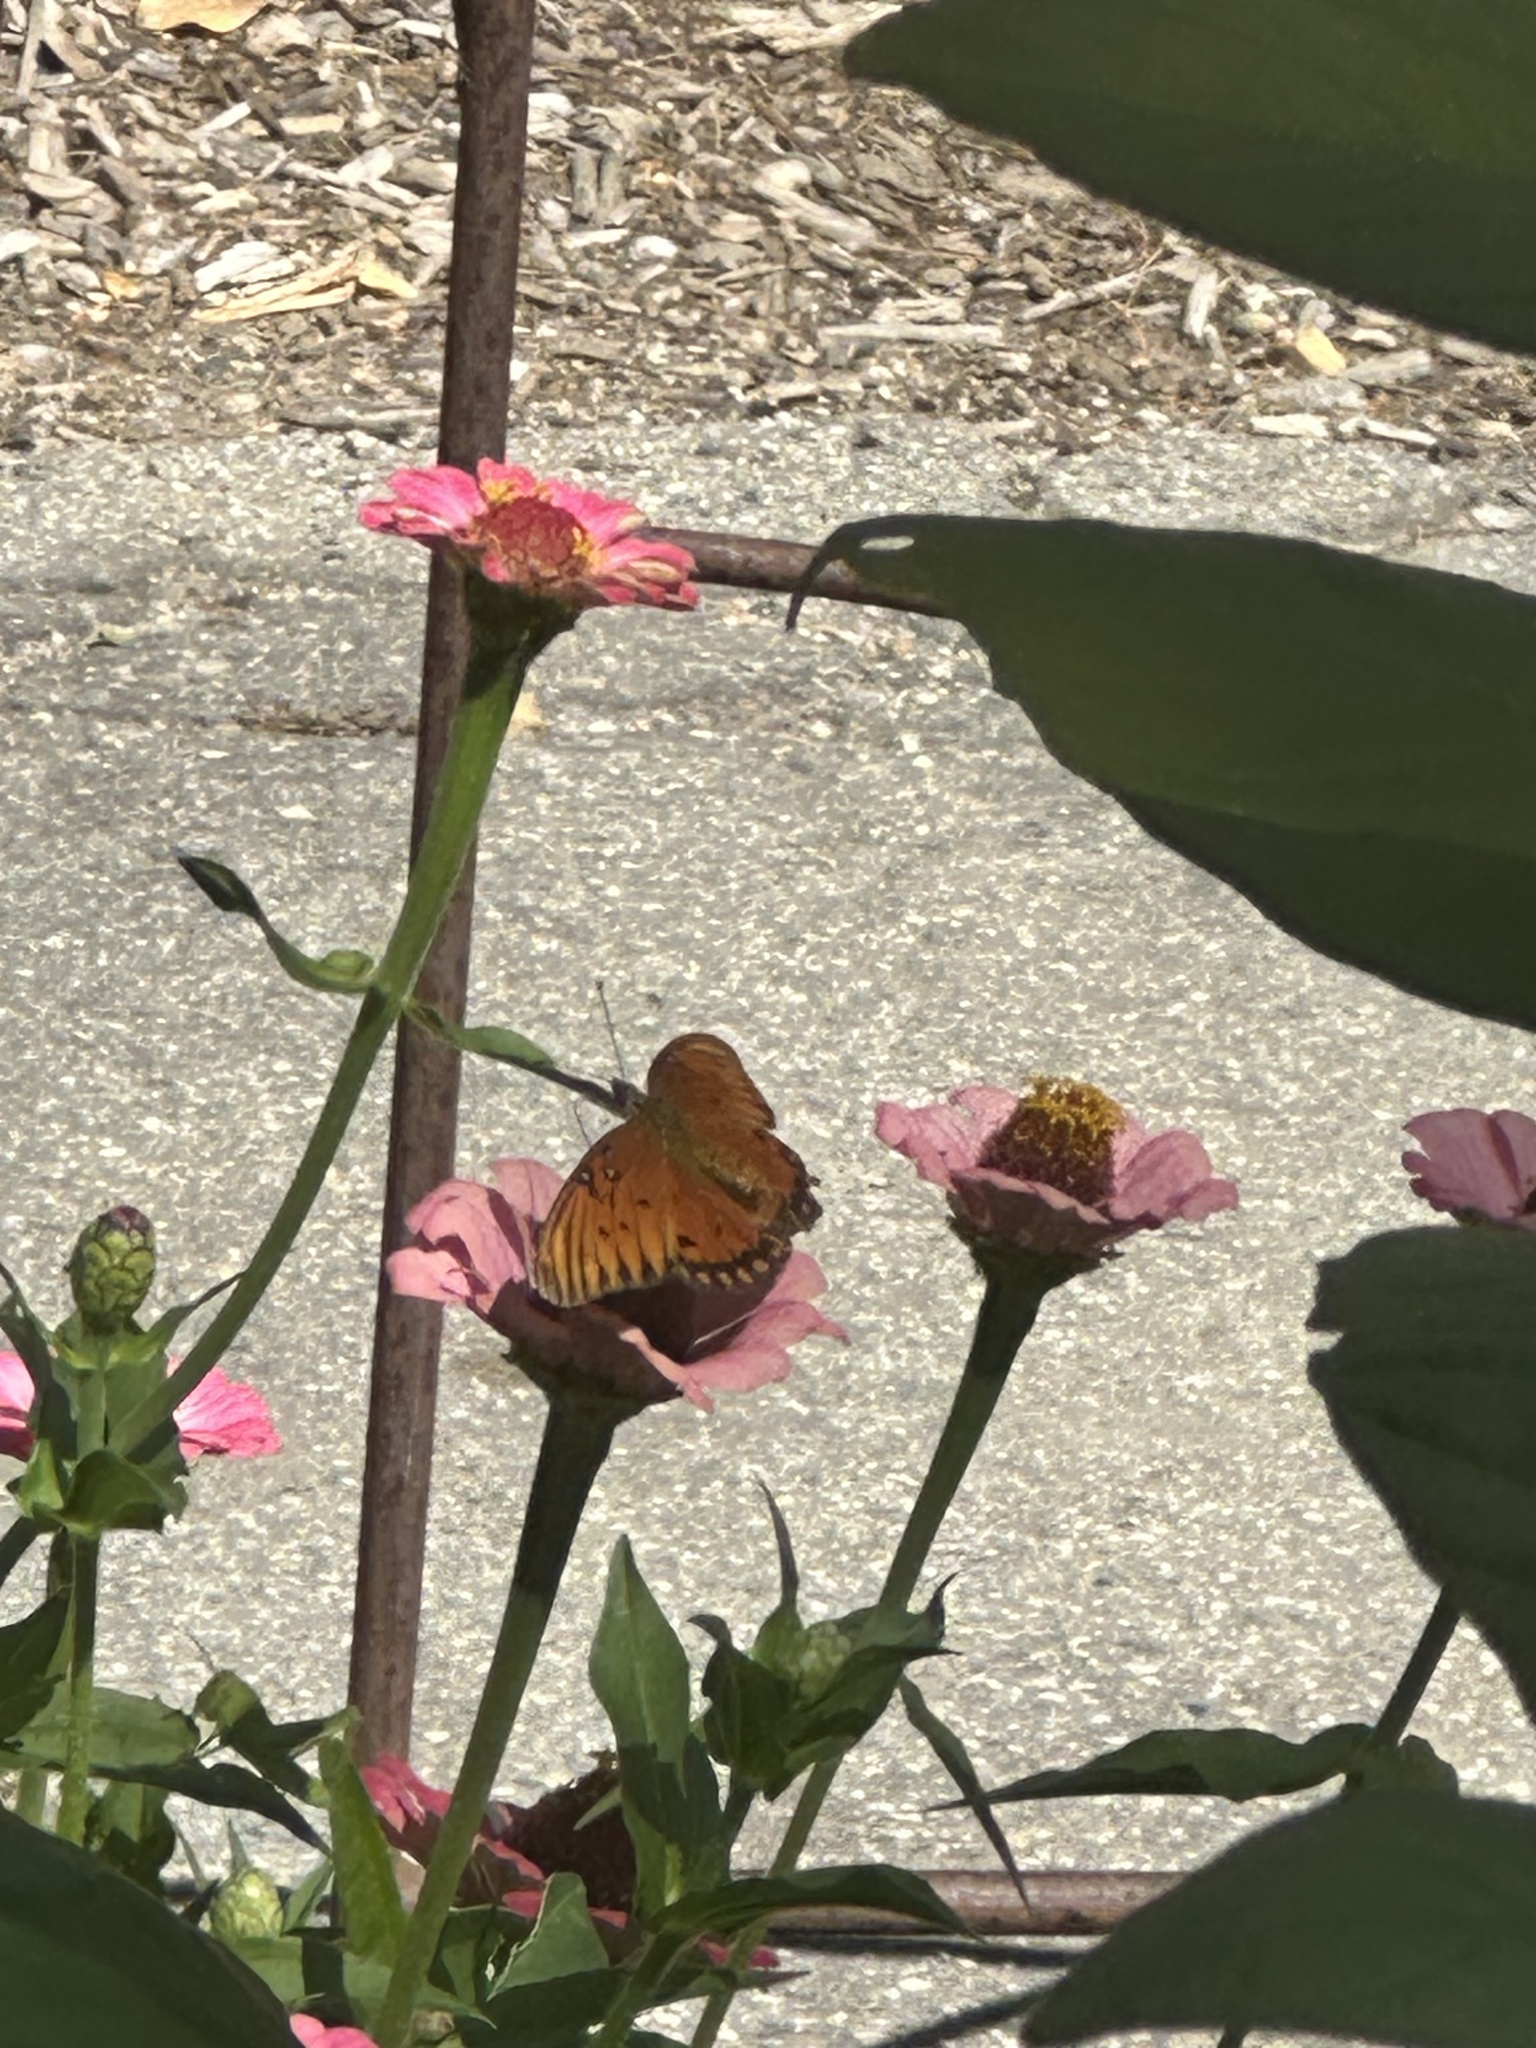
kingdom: Animalia
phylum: Arthropoda
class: Insecta
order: Lepidoptera
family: Nymphalidae
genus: Dione
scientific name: Dione vanillae
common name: Gulf fritillary
